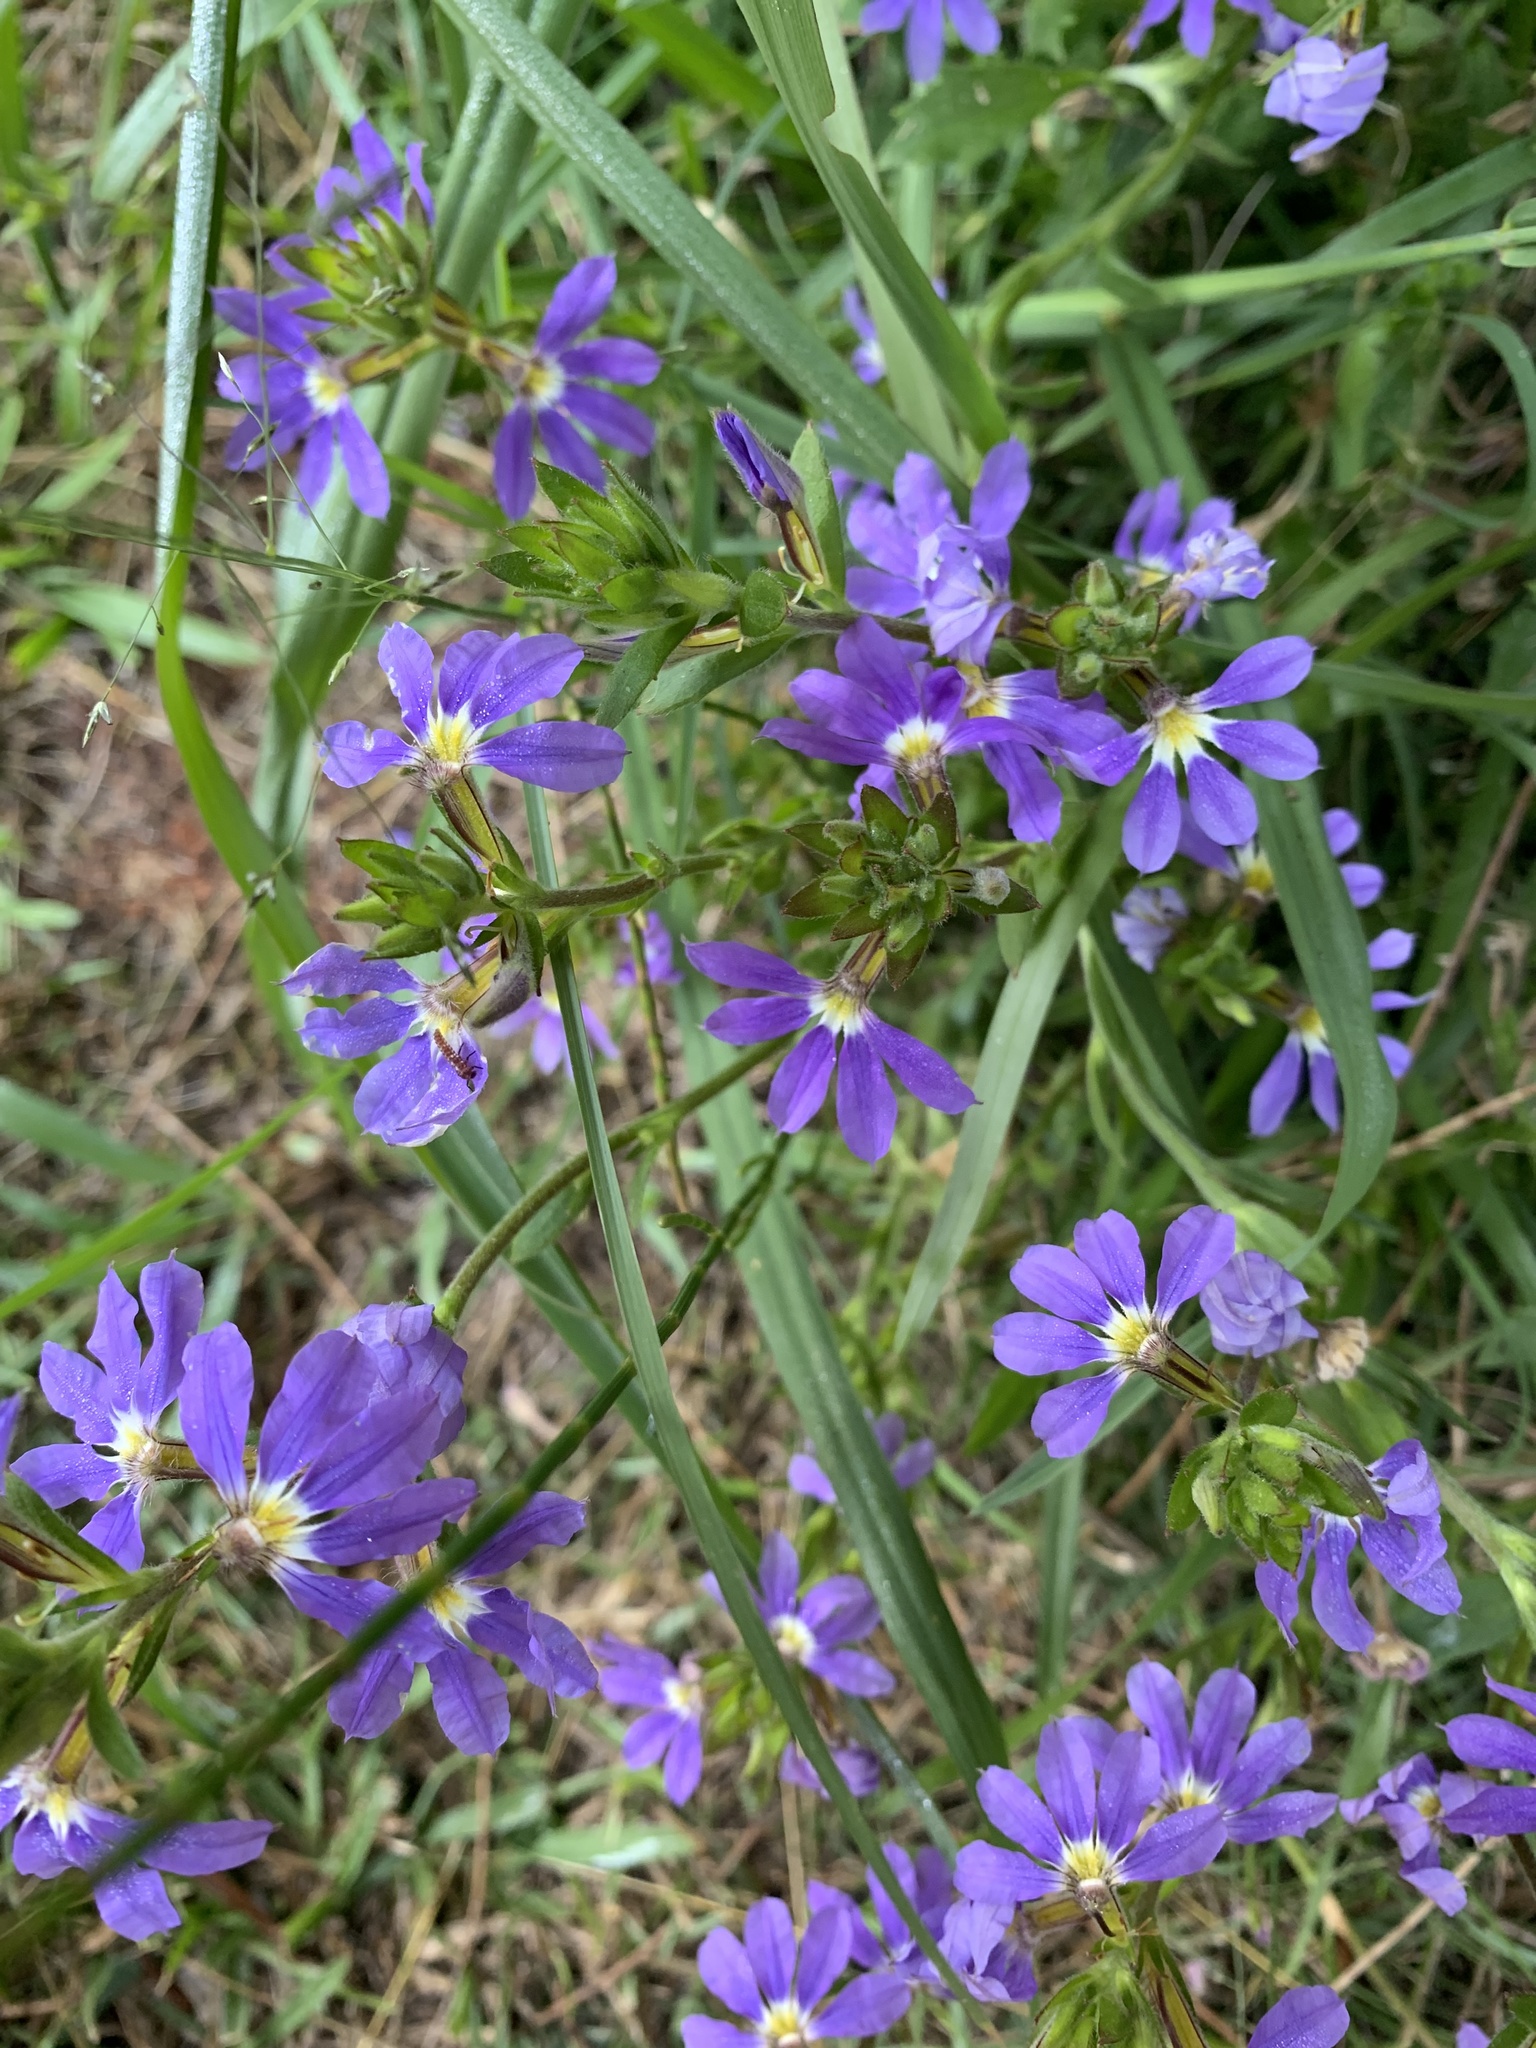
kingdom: Plantae
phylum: Tracheophyta
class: Magnoliopsida
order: Asterales
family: Goodeniaceae
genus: Scaevola
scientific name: Scaevola aemula
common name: Common fanflower
